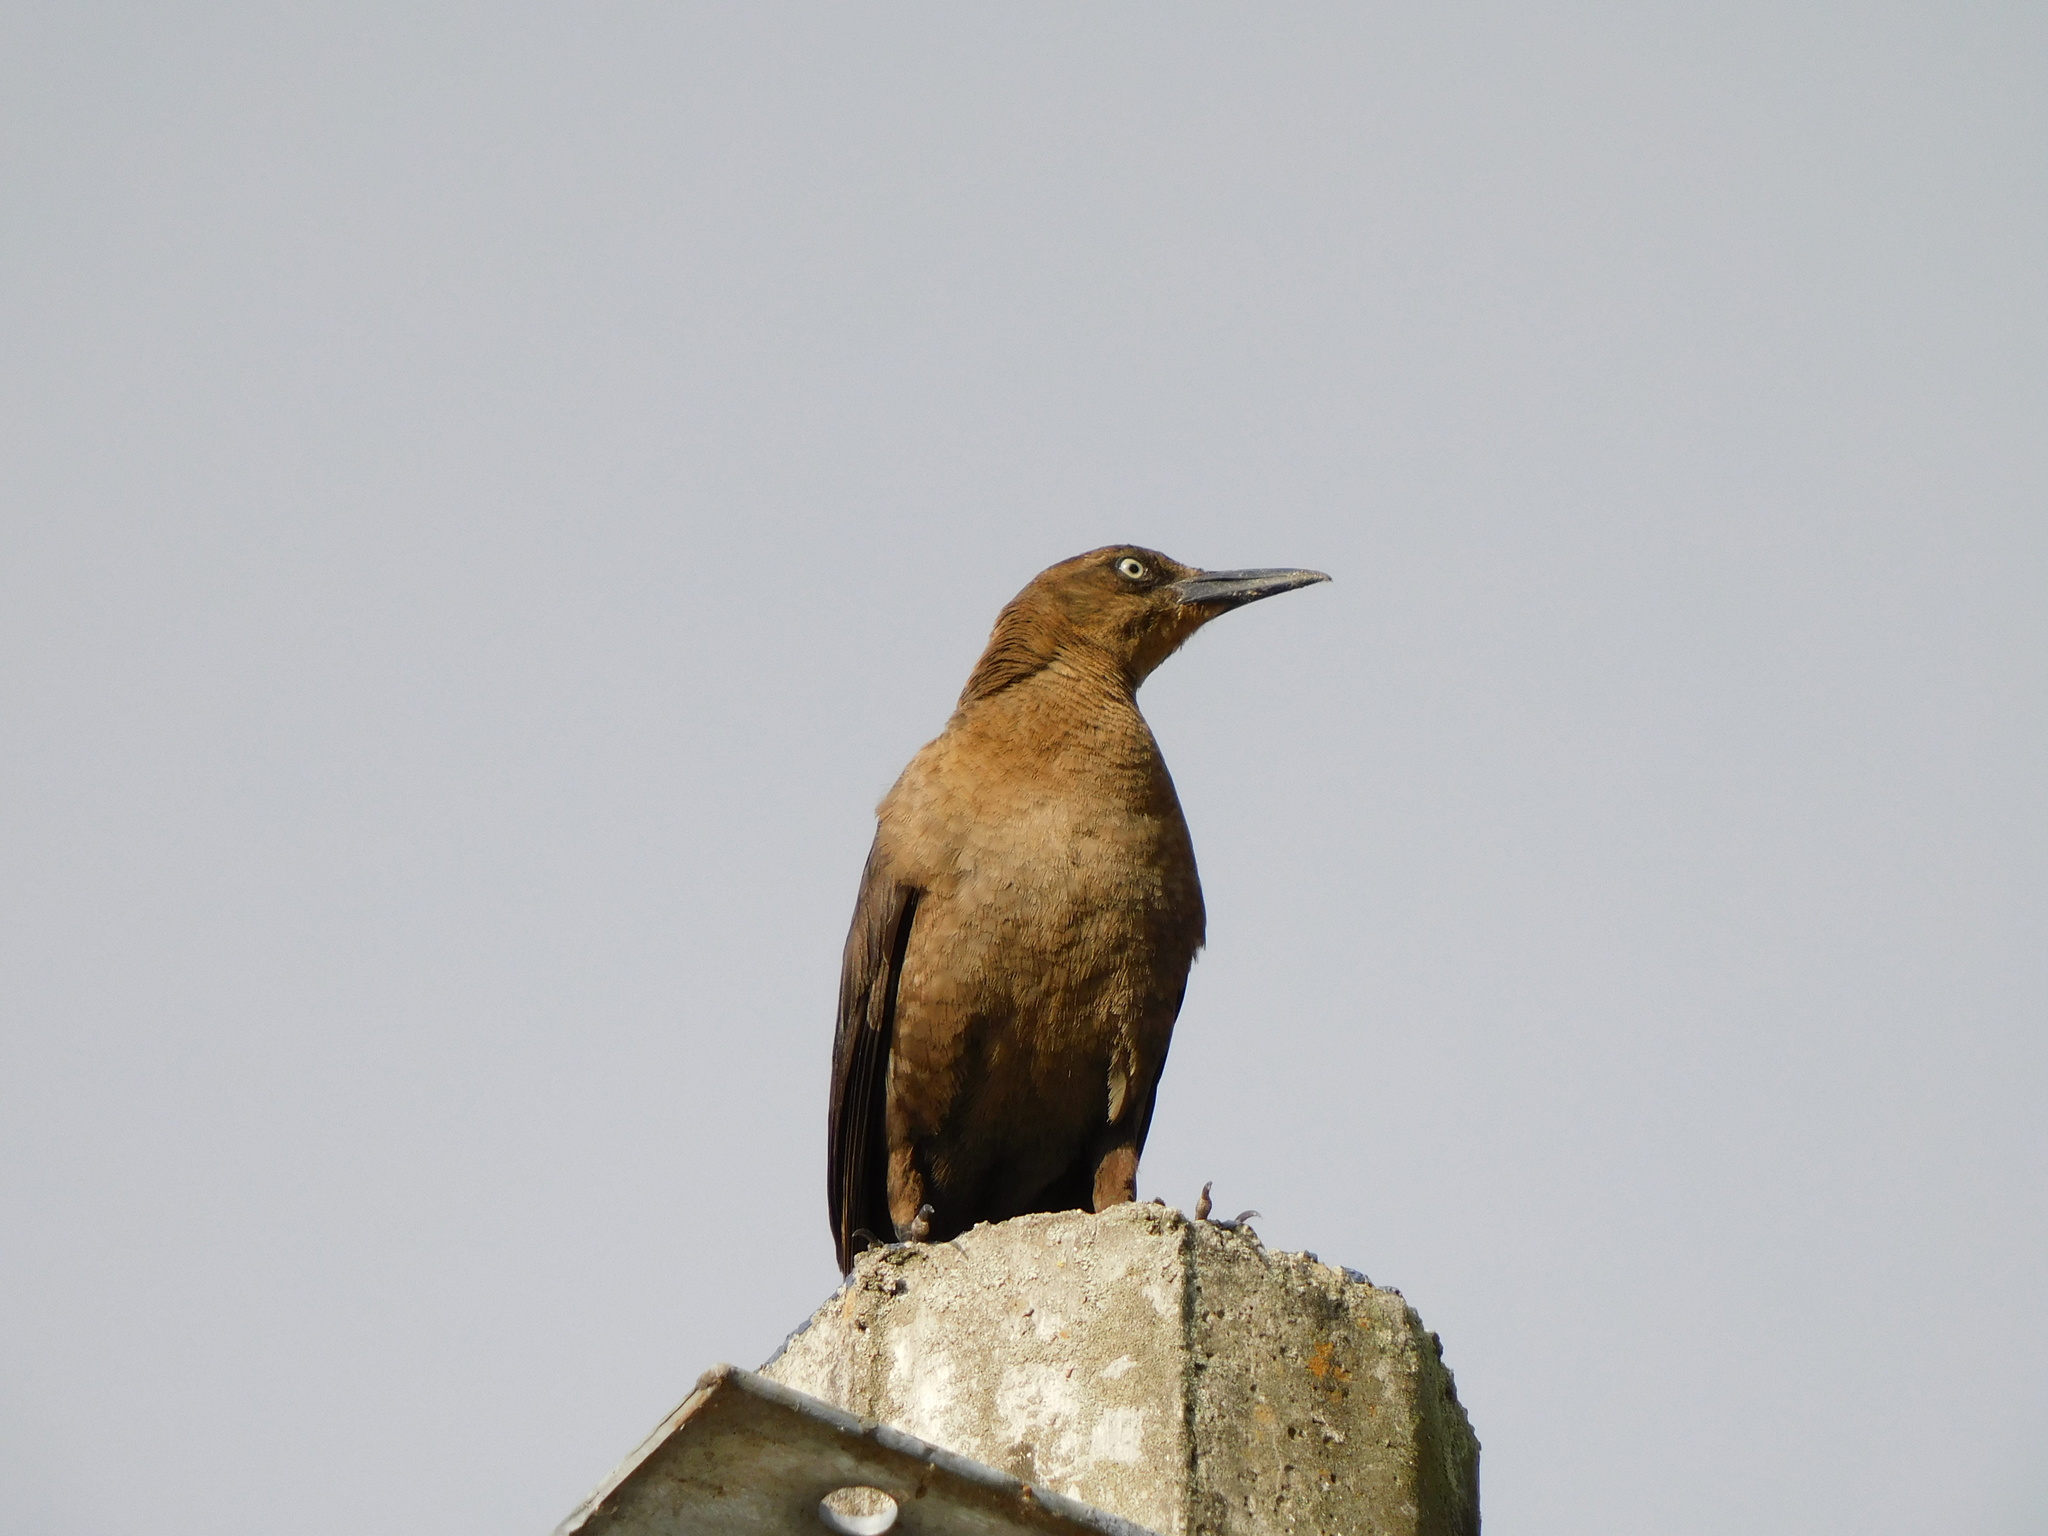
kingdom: Animalia
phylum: Chordata
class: Aves
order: Passeriformes
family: Icteridae
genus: Quiscalus
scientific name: Quiscalus mexicanus
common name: Great-tailed grackle
